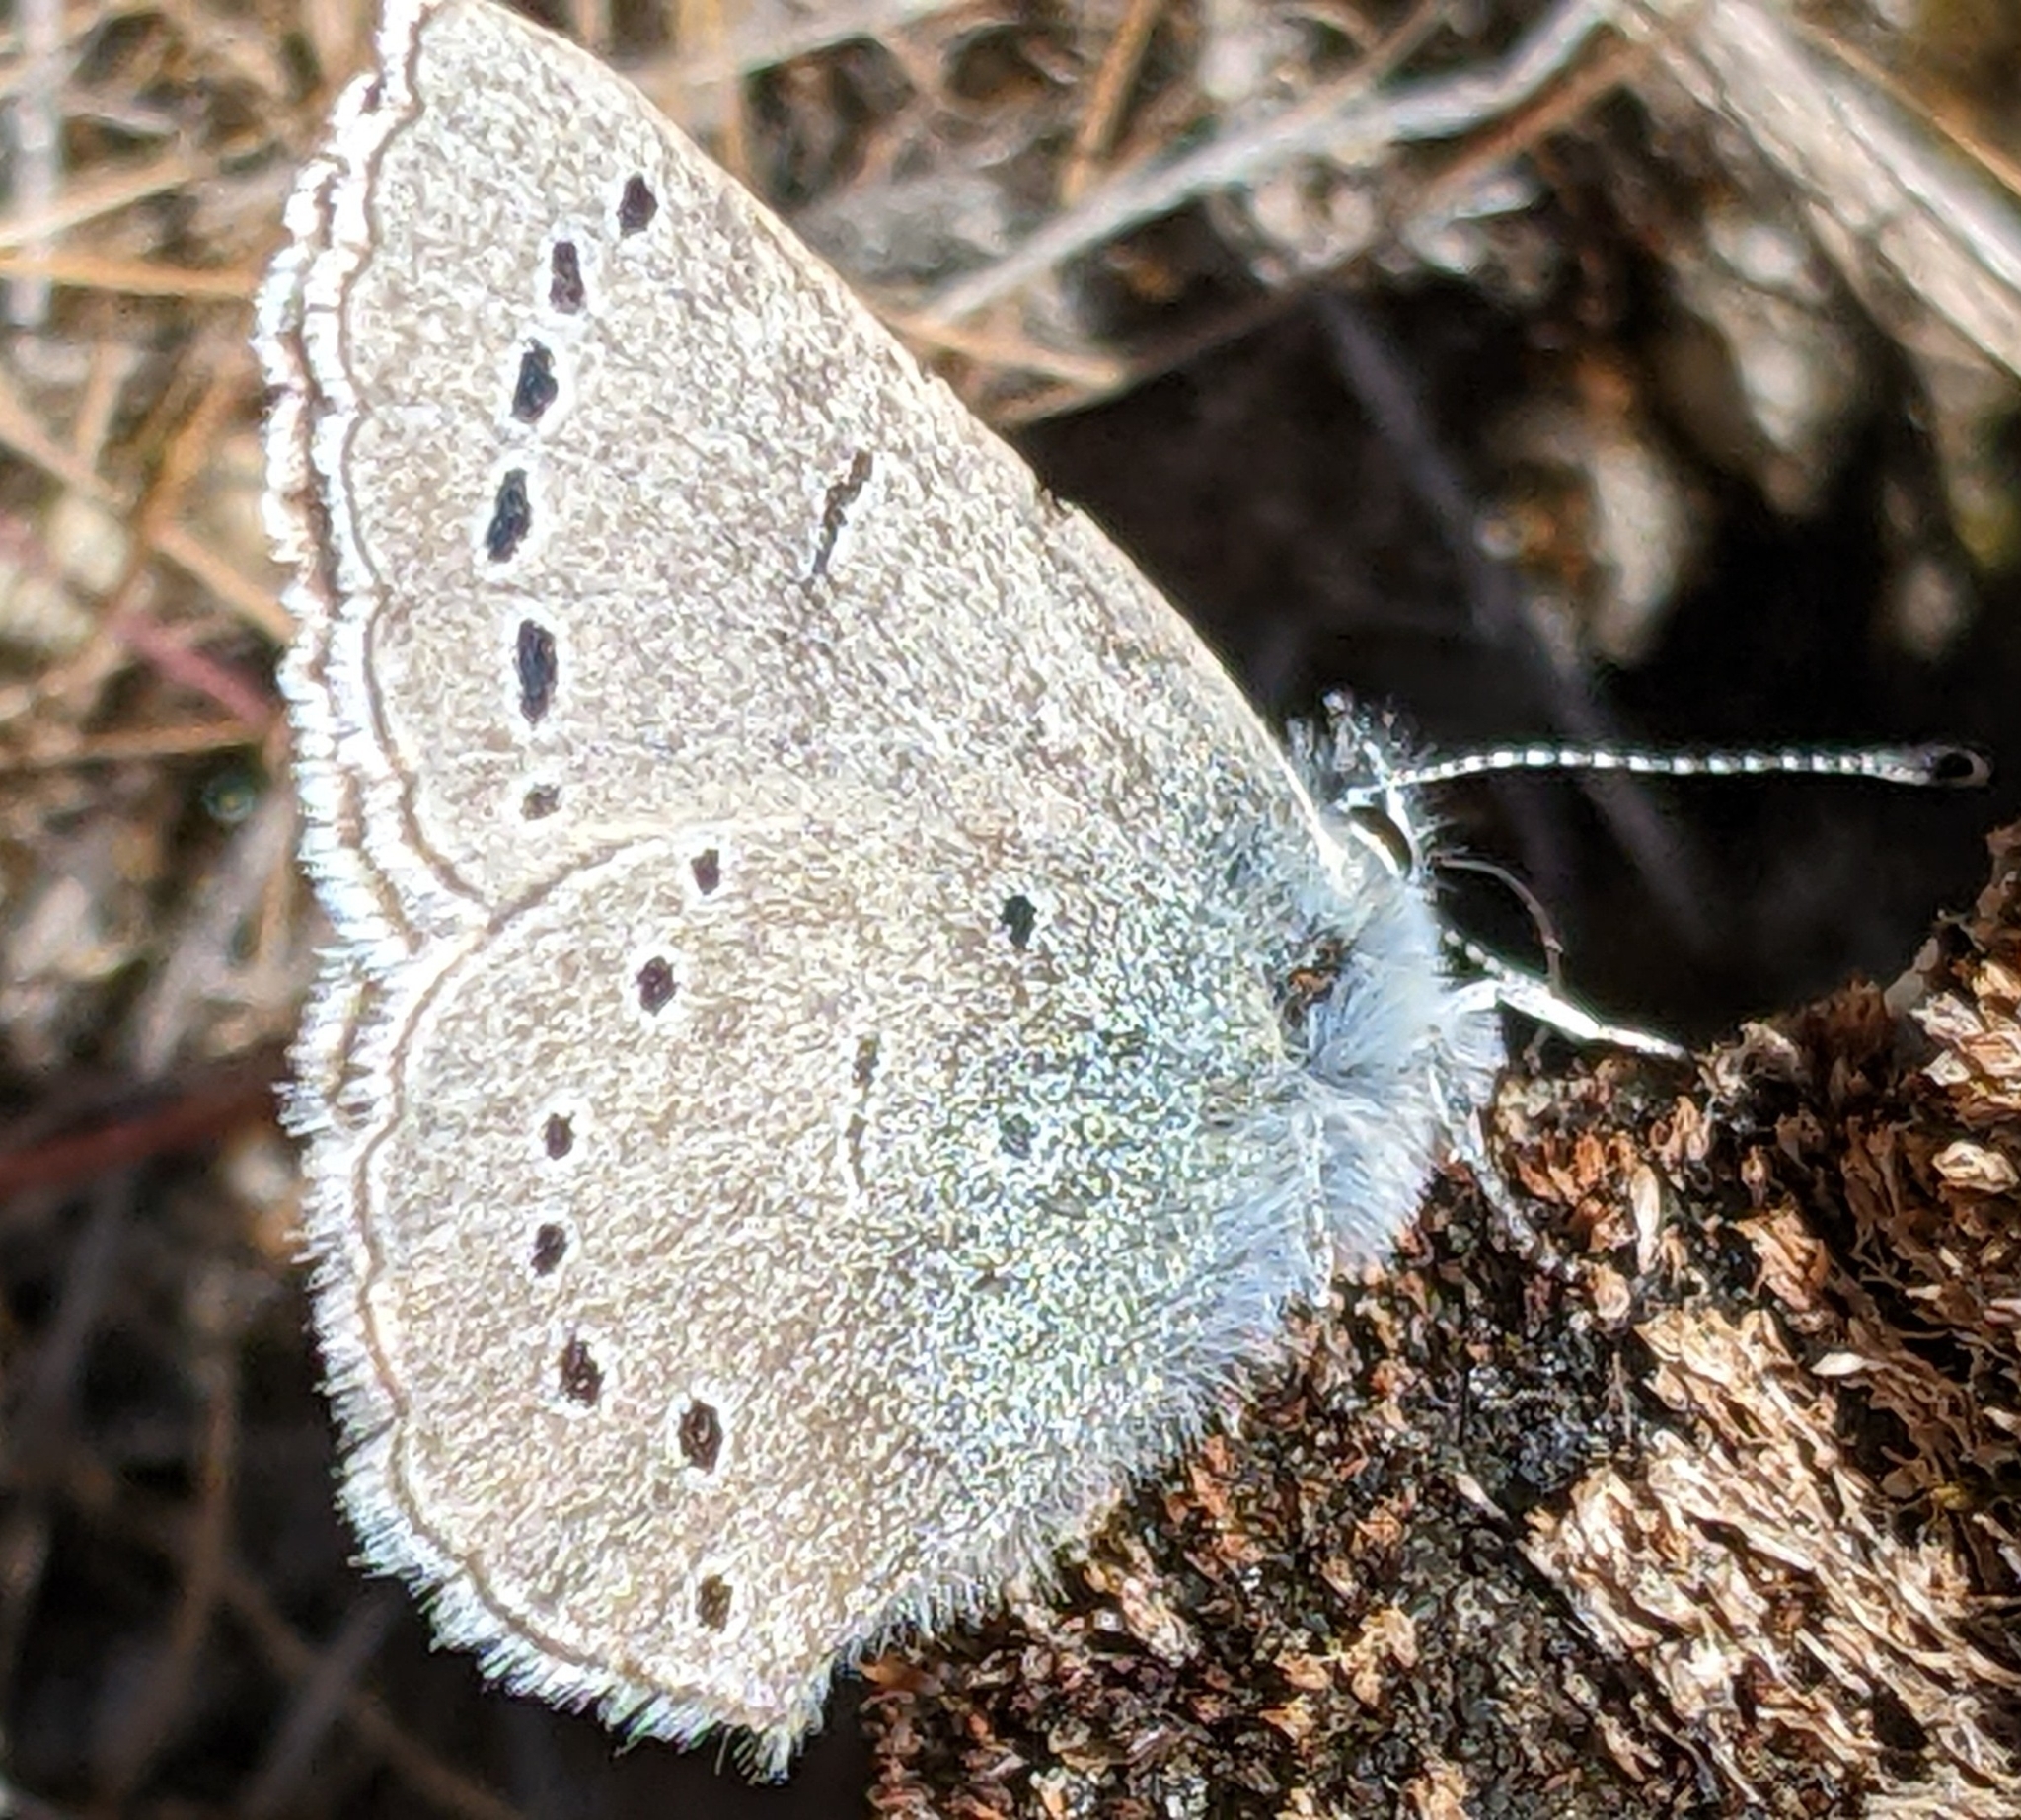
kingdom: Animalia
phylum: Arthropoda
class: Insecta
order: Lepidoptera
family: Lycaenidae
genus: Glaucopsyche
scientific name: Glaucopsyche lygdamus
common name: Silvery blue
